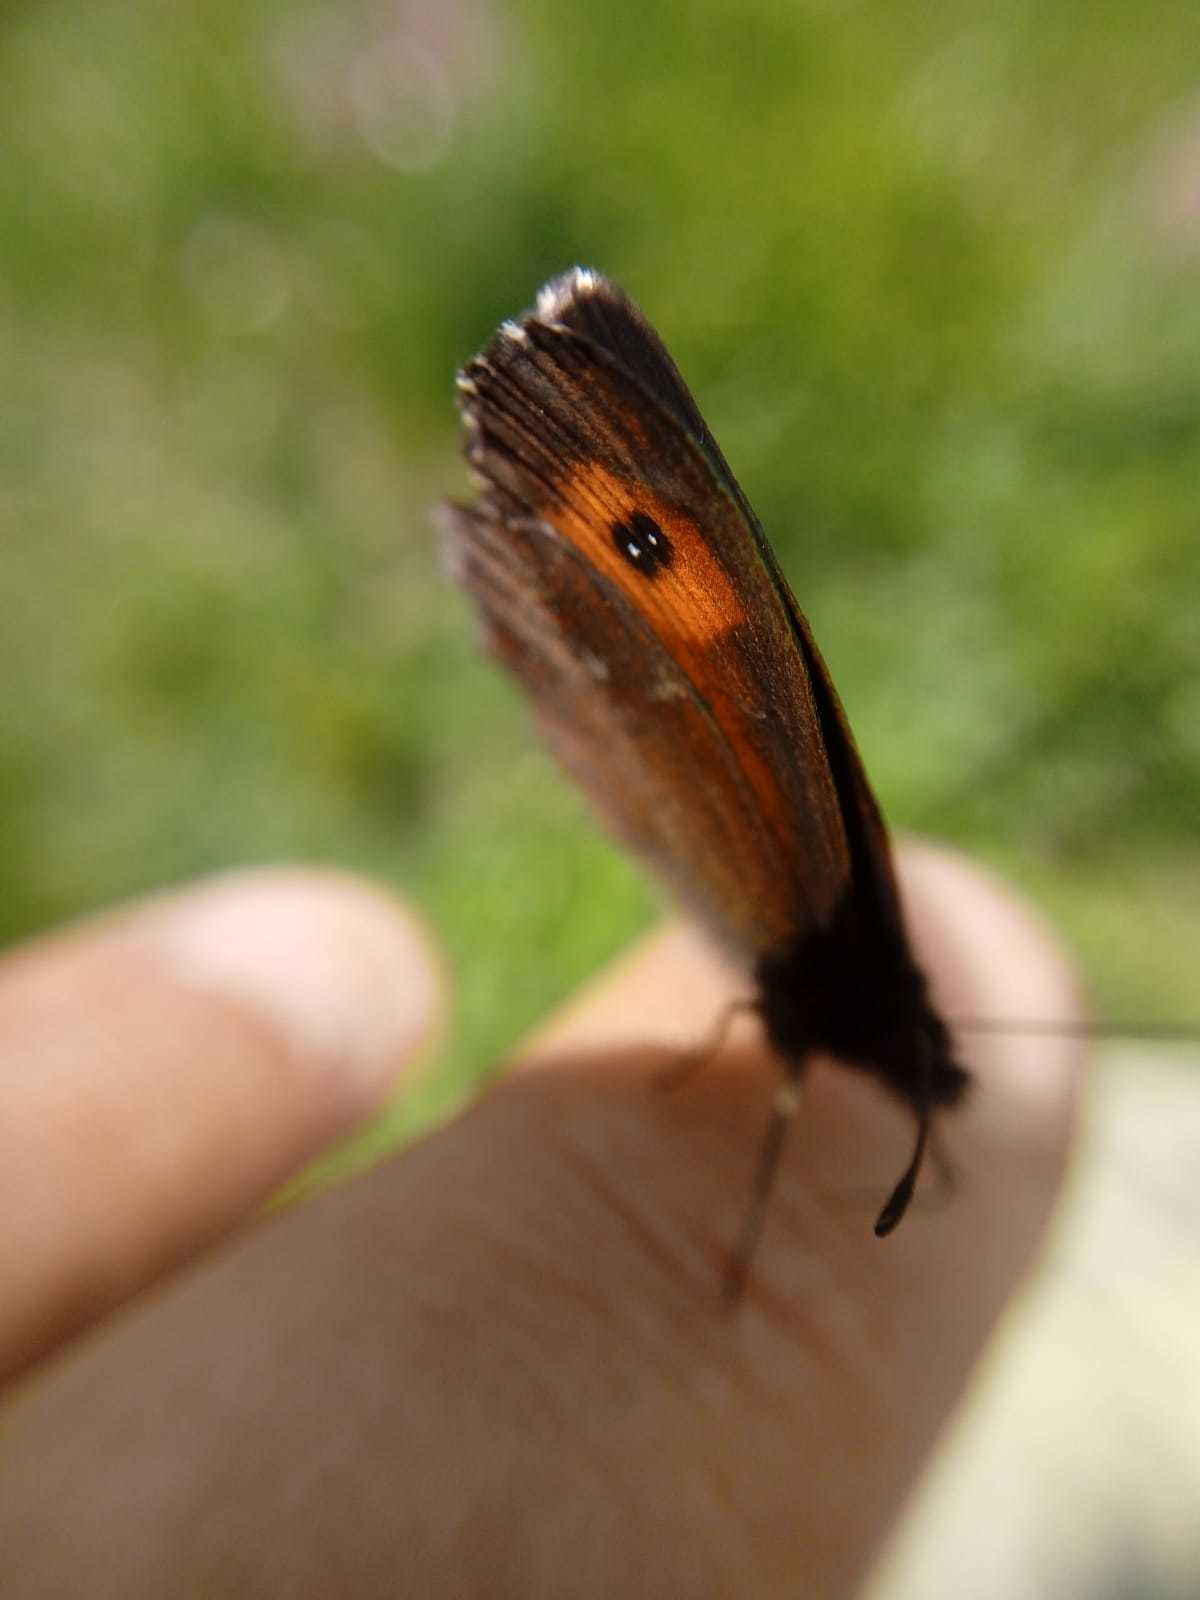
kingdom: Animalia
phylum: Arthropoda
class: Insecta
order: Lepidoptera
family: Nymphalidae
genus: Erebia
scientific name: Erebia euryale
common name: Large ringlet
